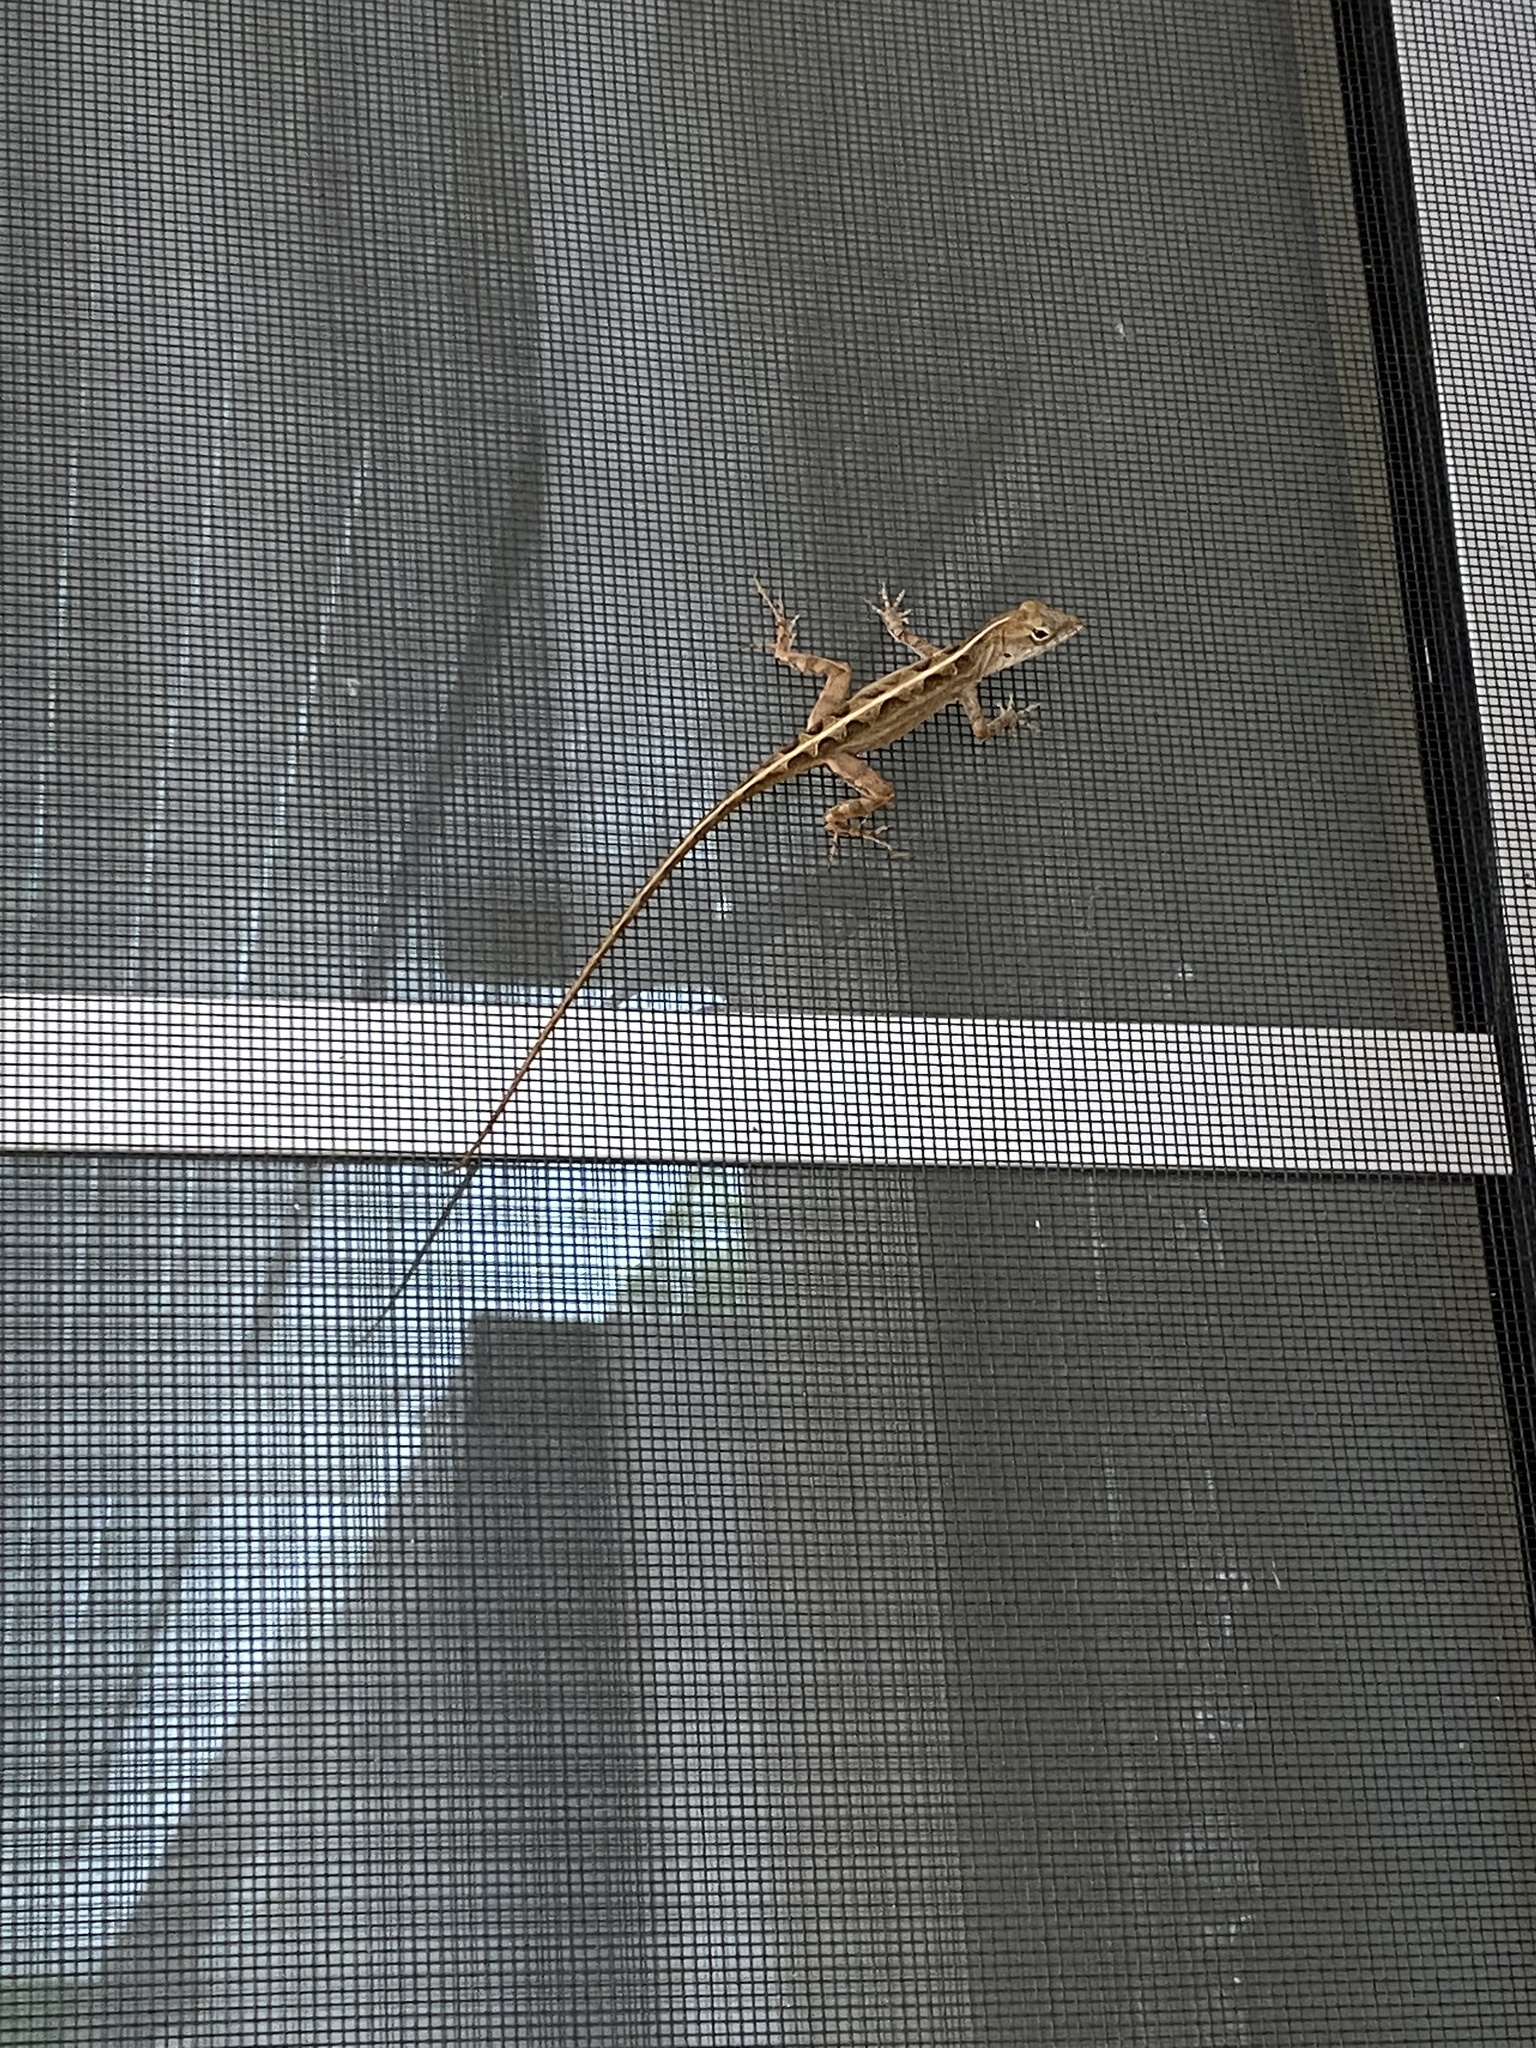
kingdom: Animalia
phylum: Chordata
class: Squamata
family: Dactyloidae
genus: Anolis
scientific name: Anolis sagrei
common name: Brown anole
